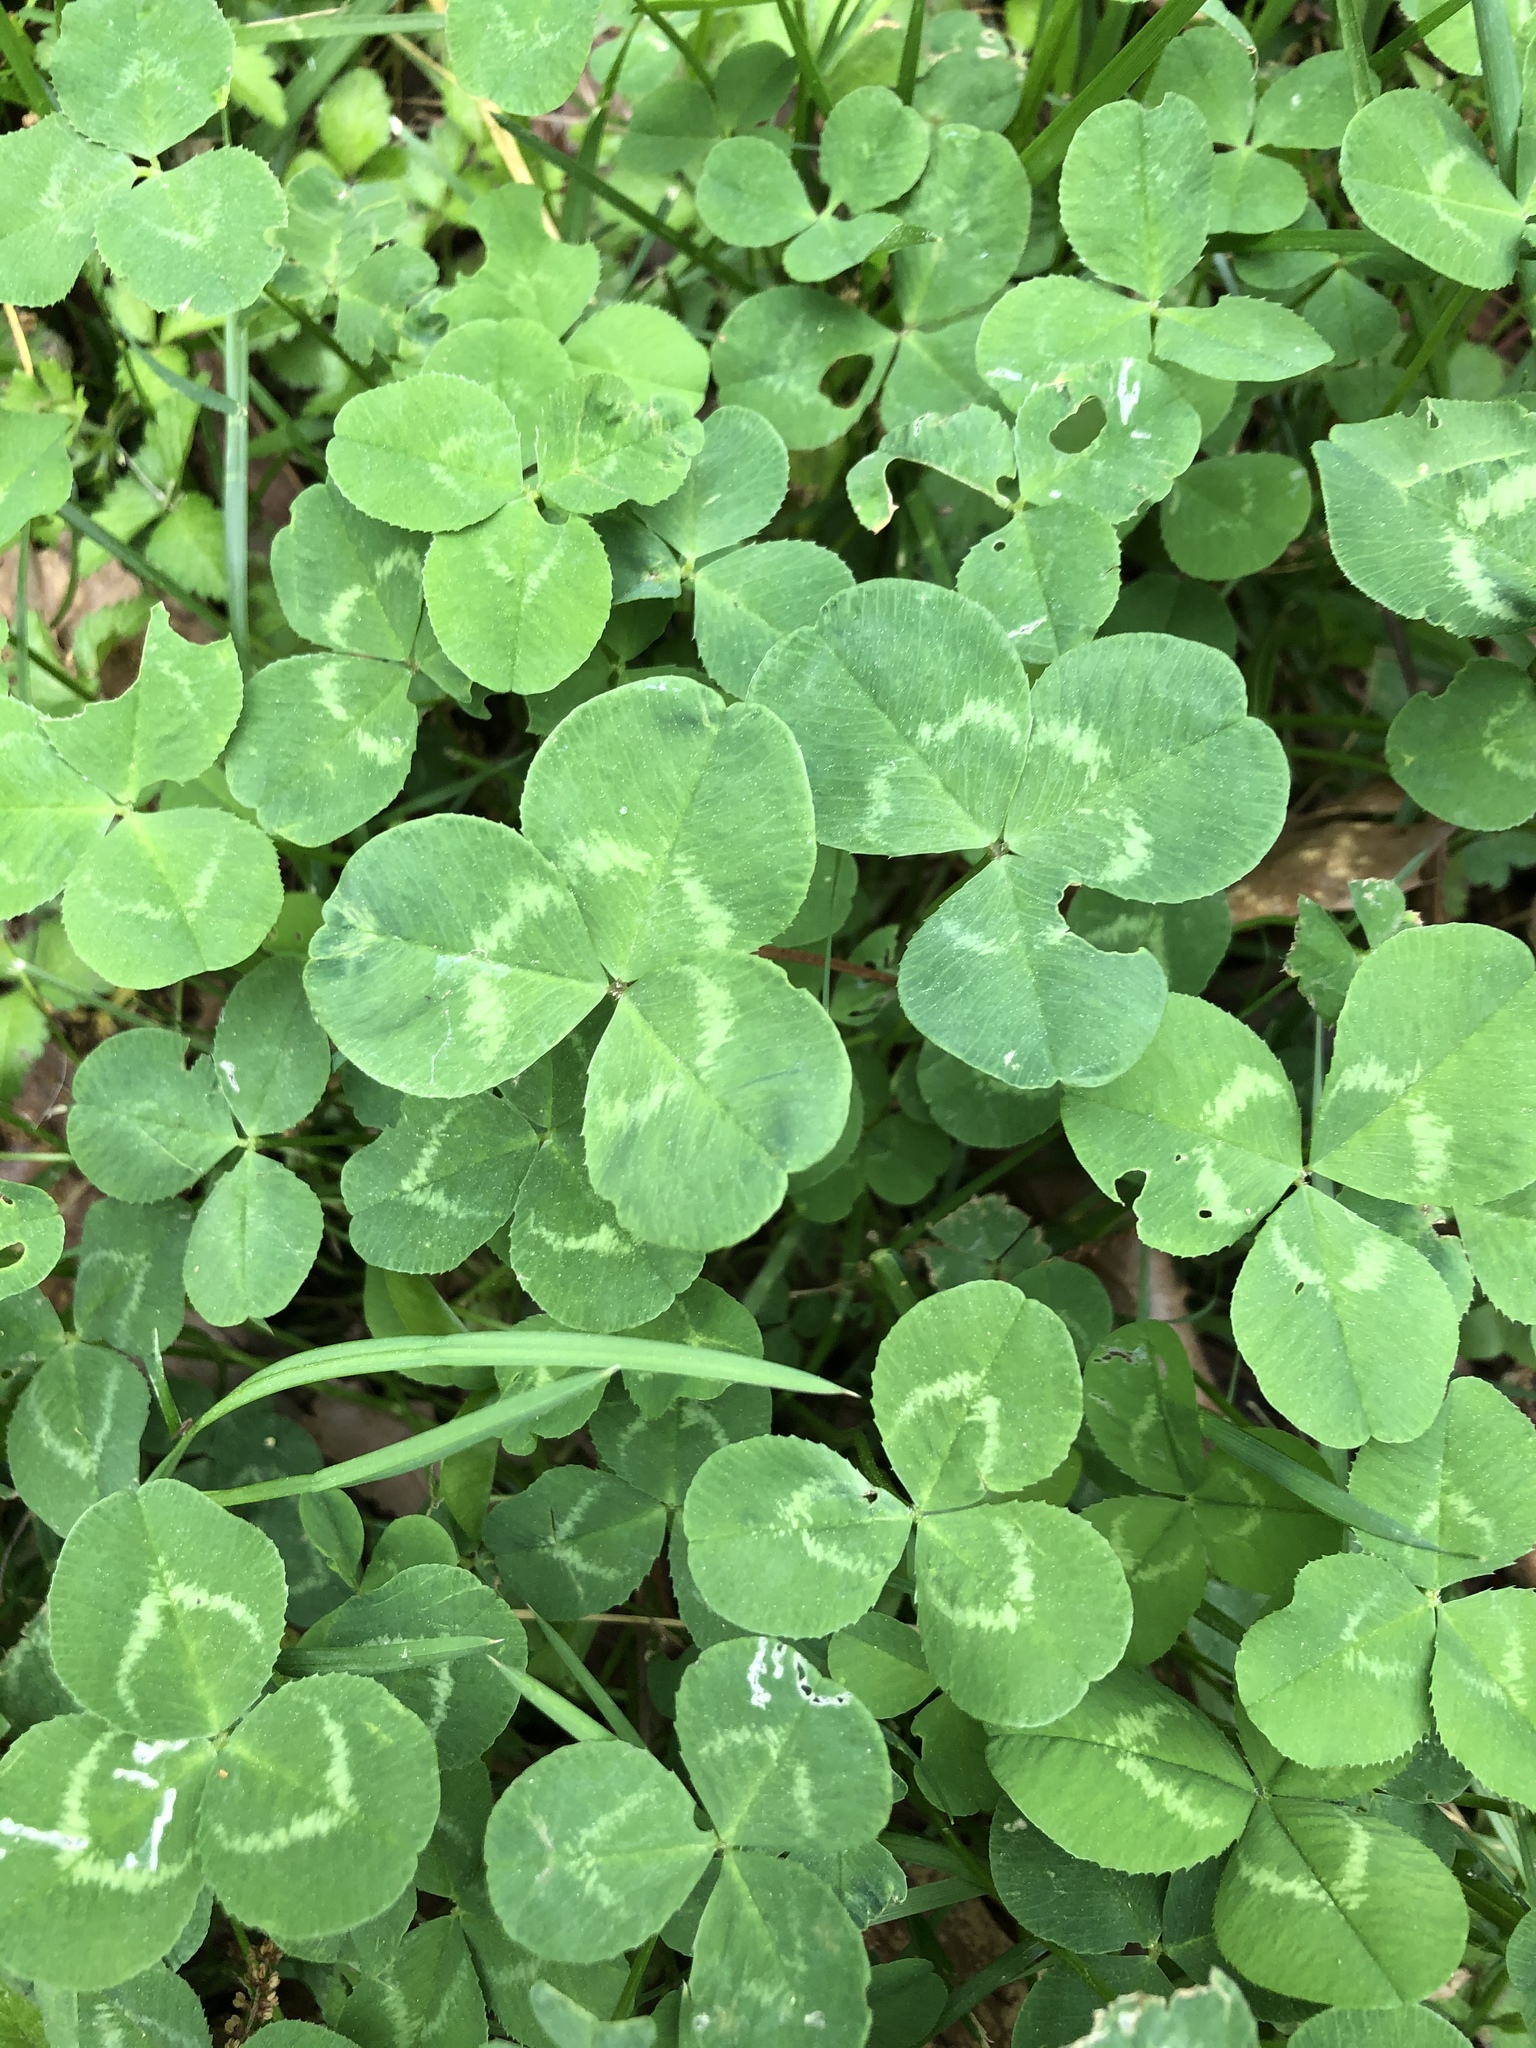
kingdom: Plantae
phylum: Tracheophyta
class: Magnoliopsida
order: Fabales
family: Fabaceae
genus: Trifolium
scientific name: Trifolium repens
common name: White clover
